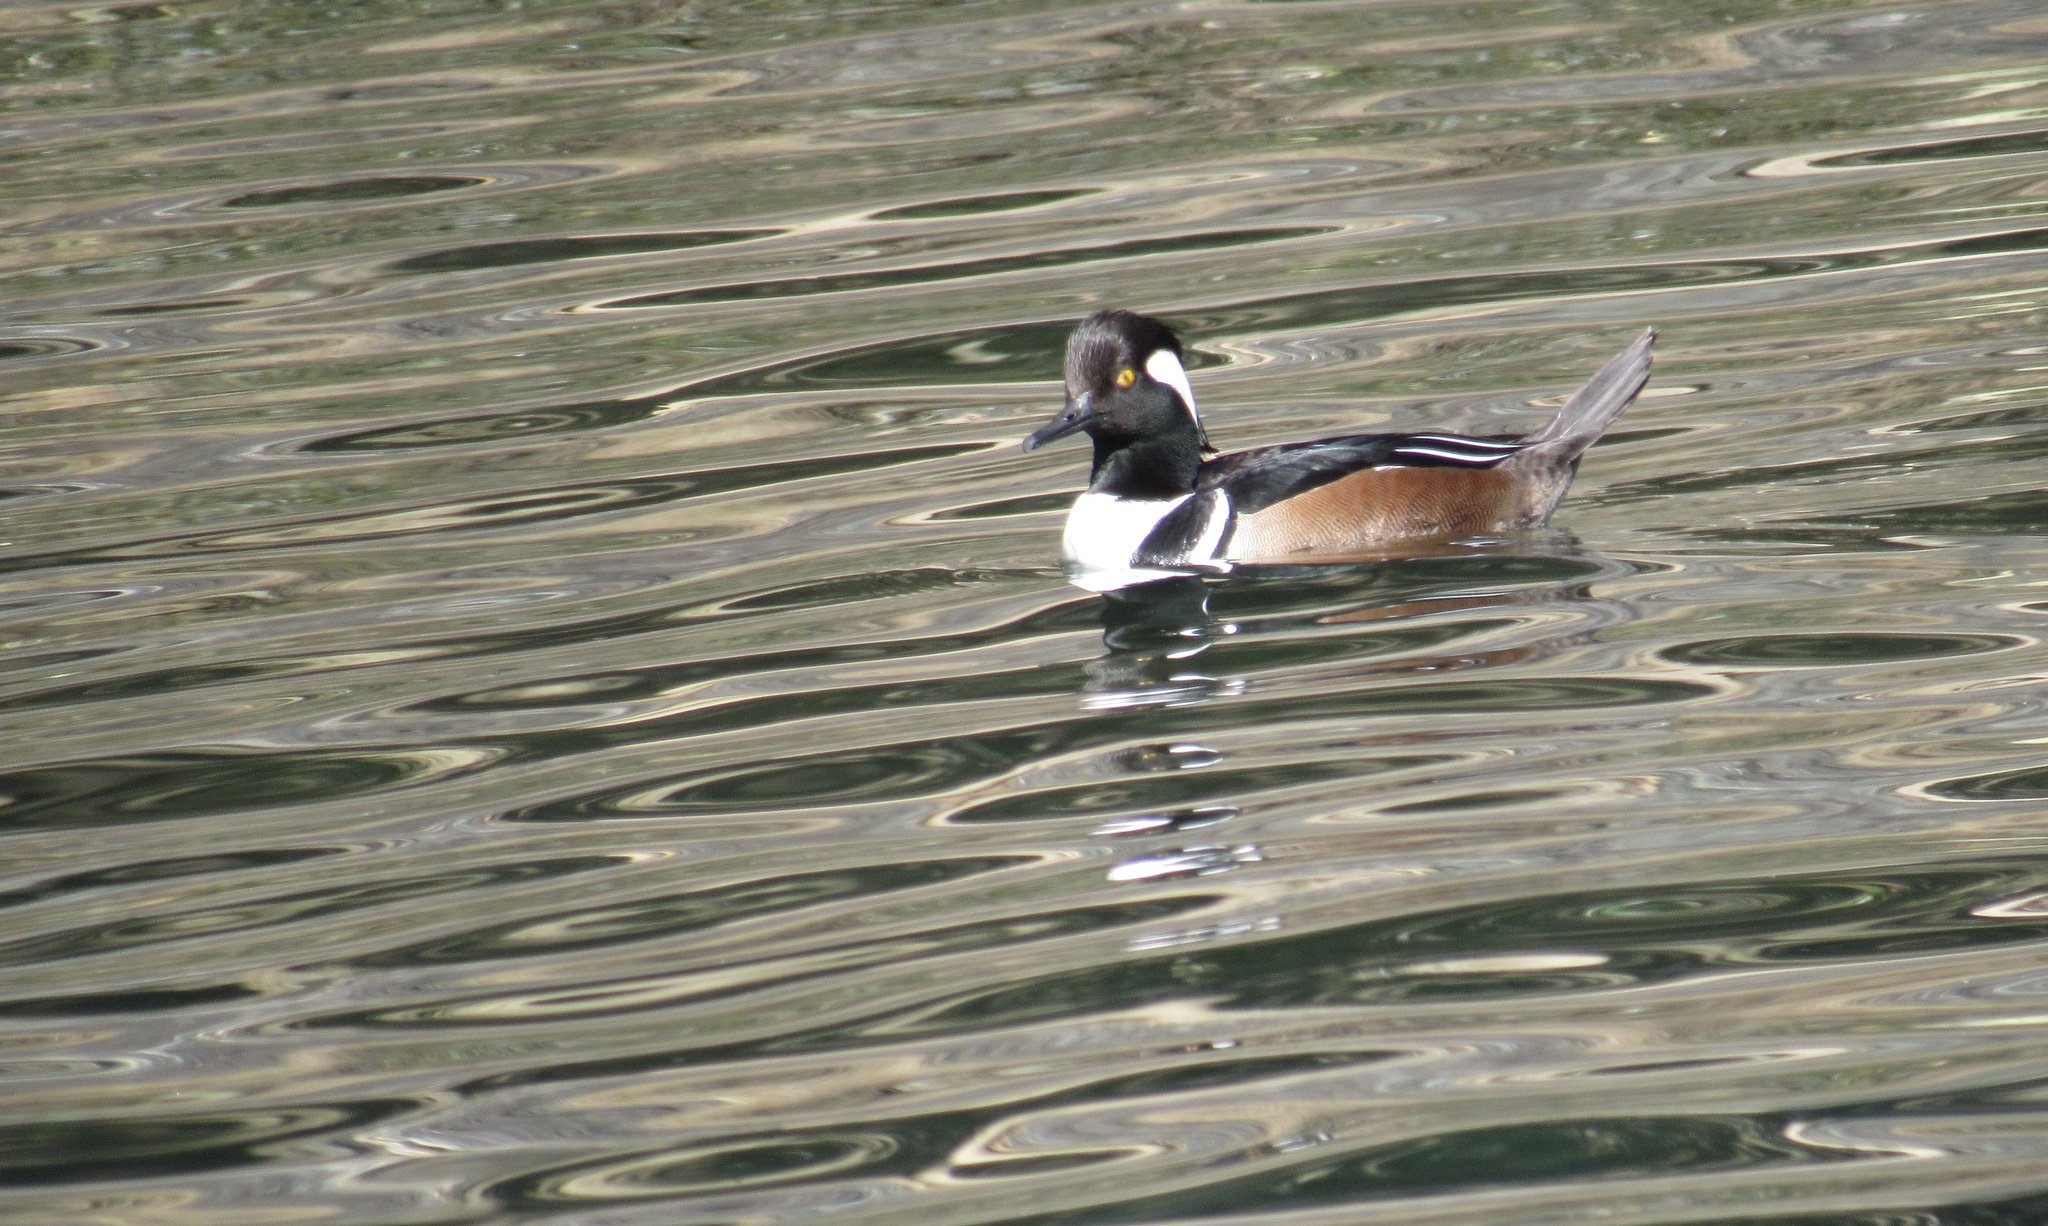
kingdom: Animalia
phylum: Chordata
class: Aves
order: Anseriformes
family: Anatidae
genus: Lophodytes
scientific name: Lophodytes cucullatus
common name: Hooded merganser
